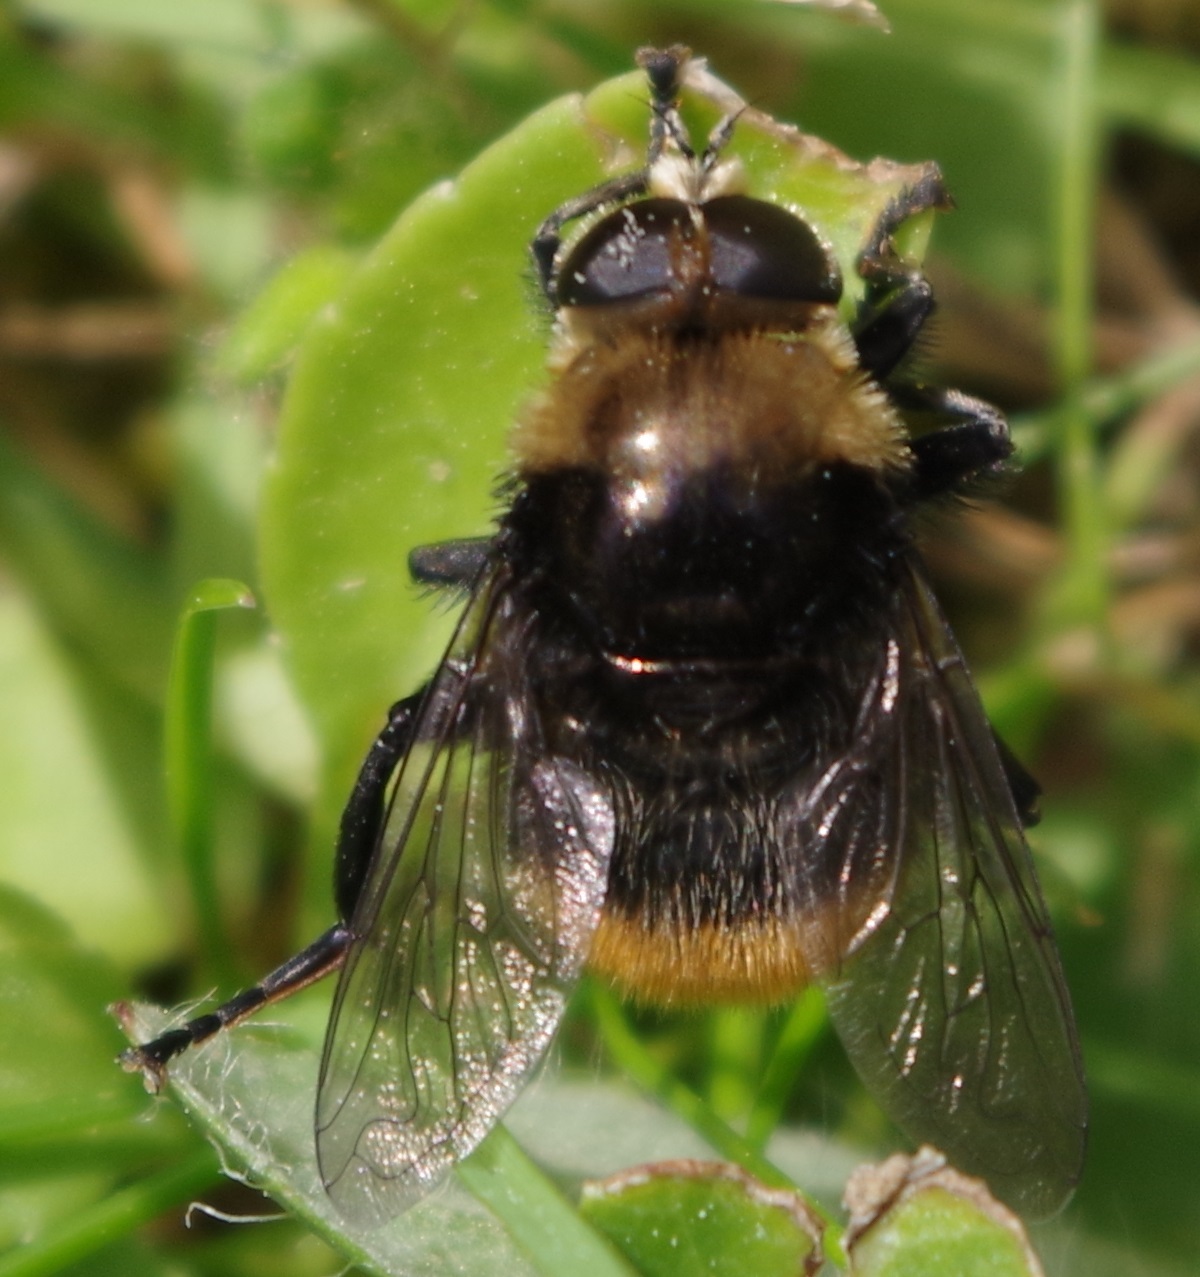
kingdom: Animalia
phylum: Arthropoda
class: Insecta
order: Diptera
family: Syrphidae
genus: Merodon
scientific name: Merodon equestris
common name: Greater bulb-fly
